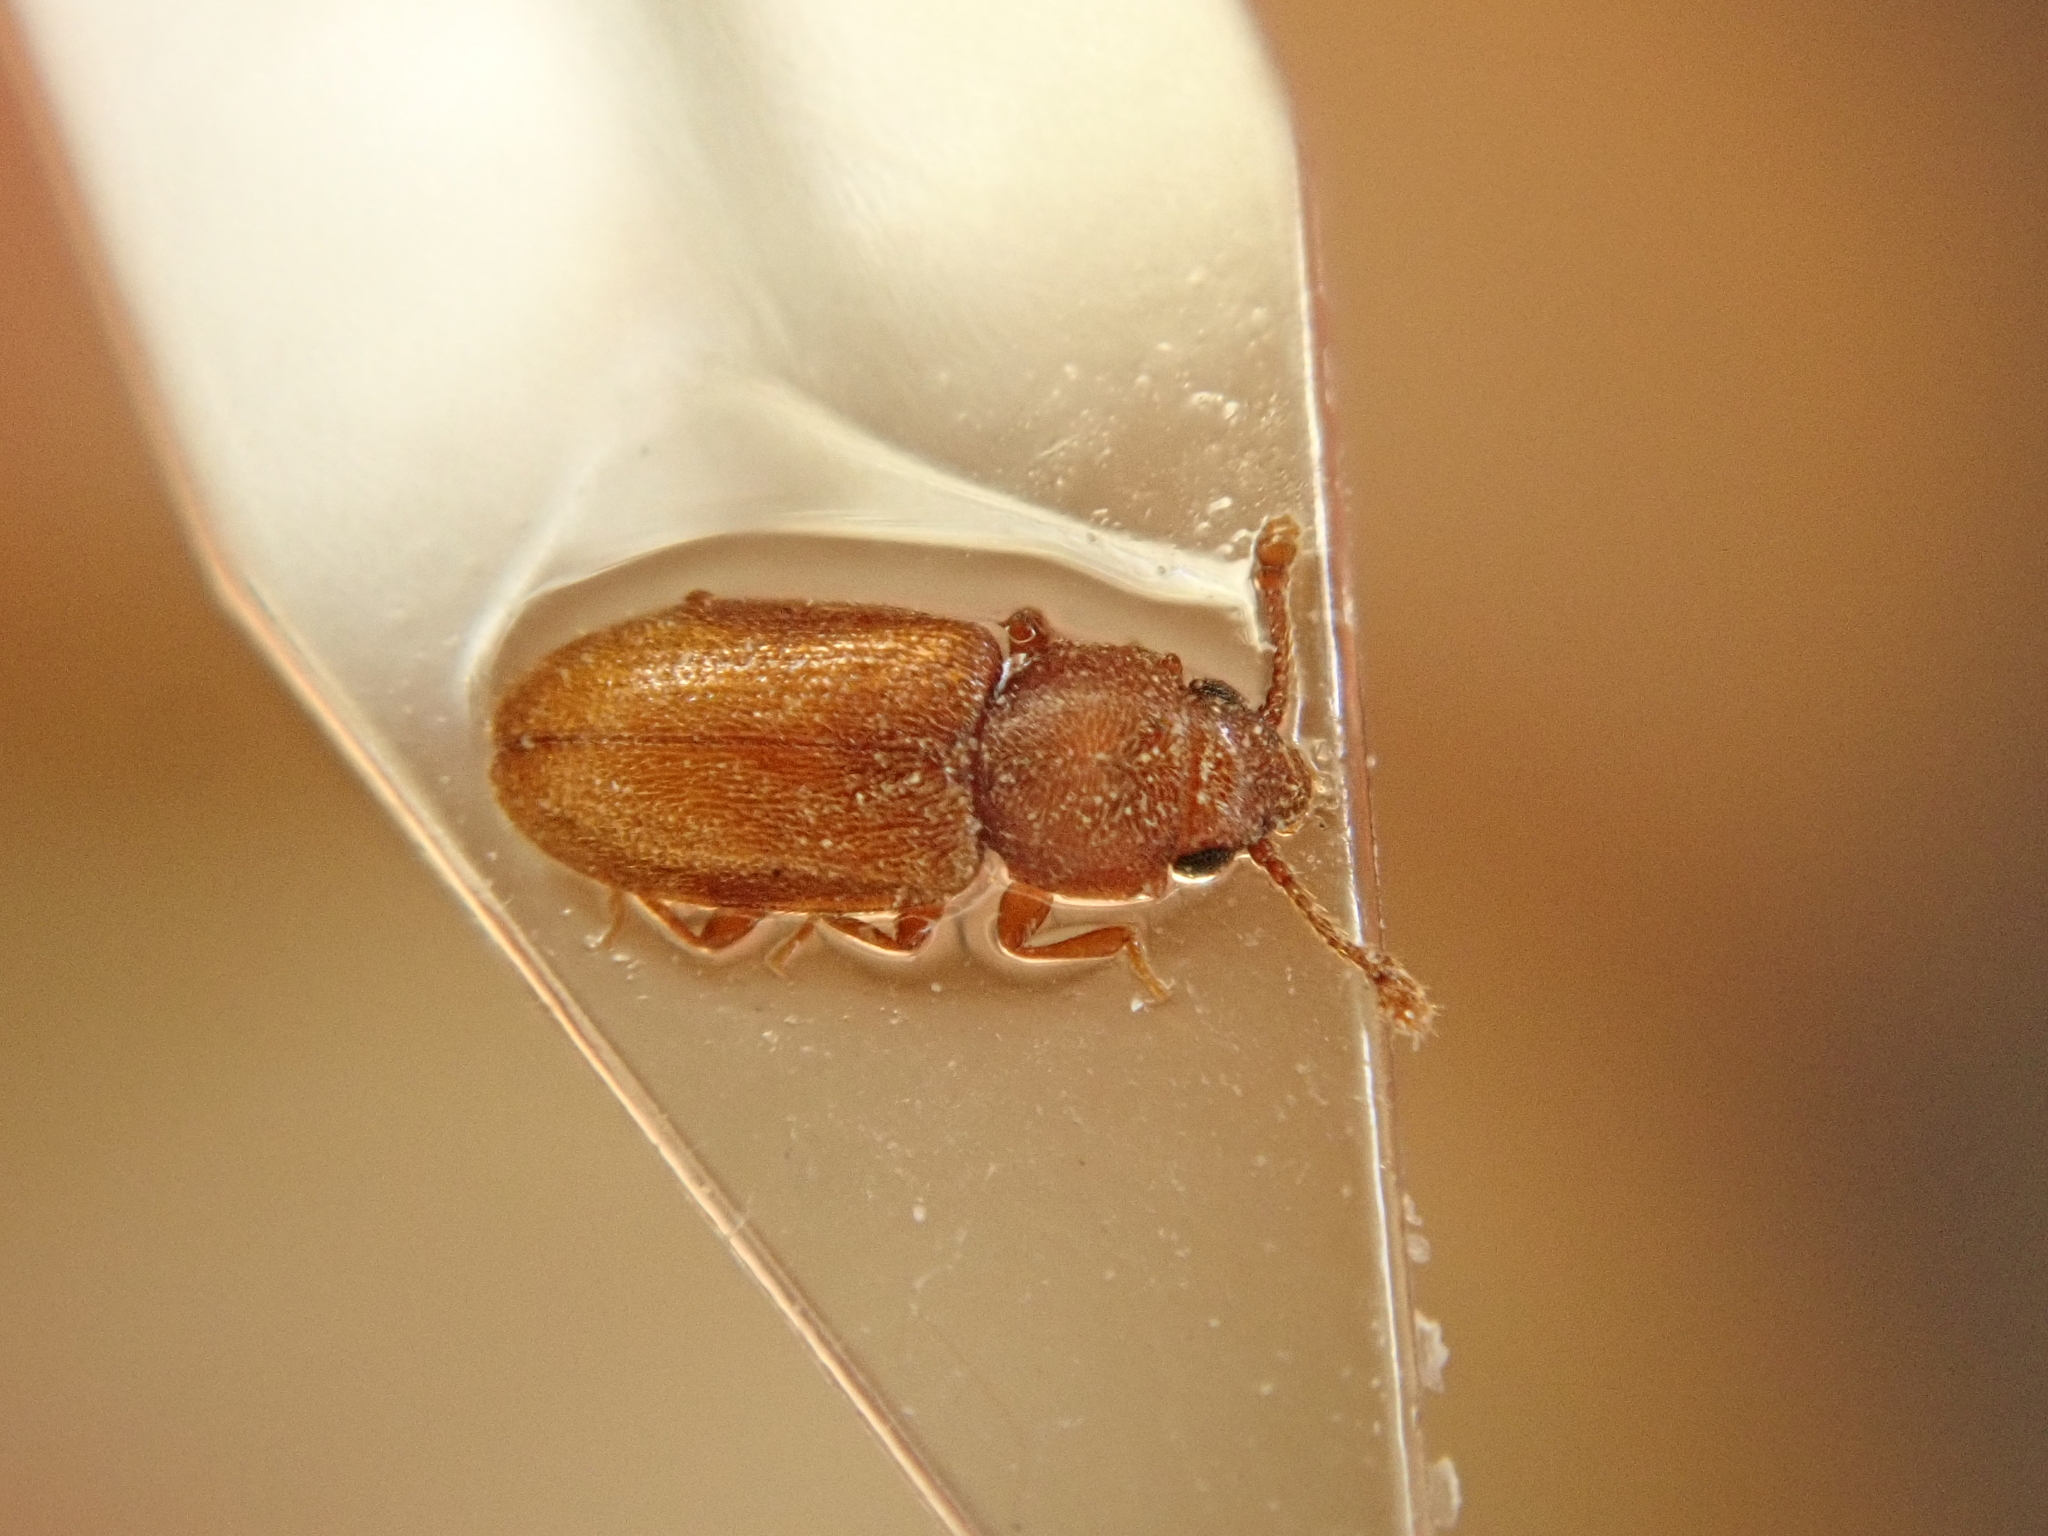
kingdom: Animalia
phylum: Arthropoda
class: Insecta
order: Coleoptera
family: Silvanidae
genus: Ahasverus
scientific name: Ahasverus advena
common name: Foreign grain beetle
